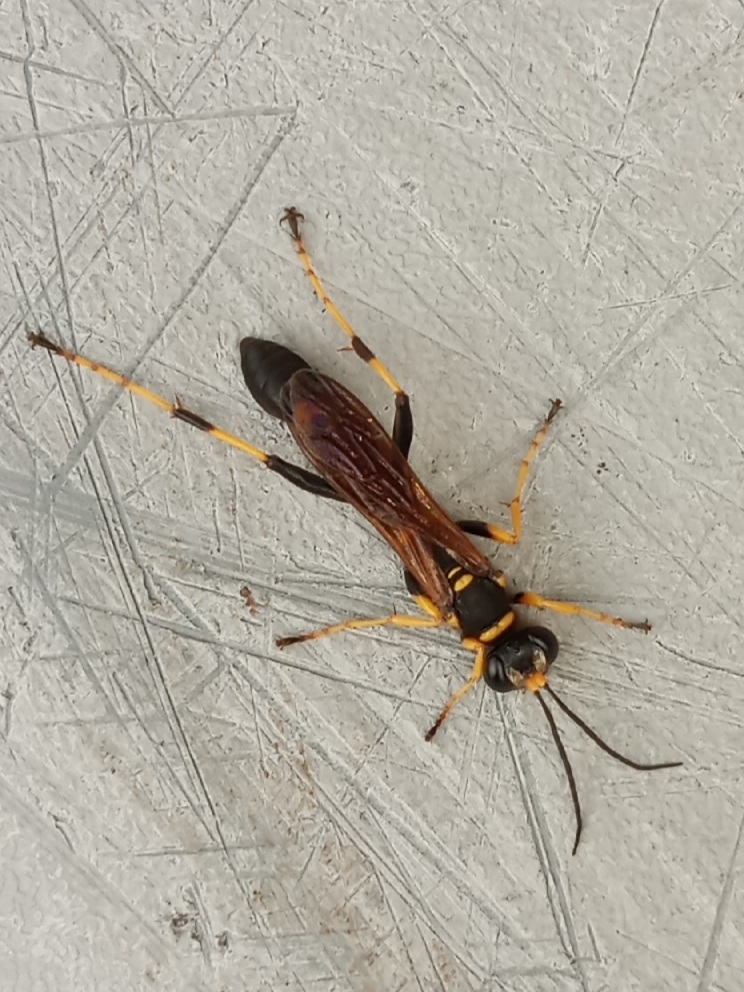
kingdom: Animalia
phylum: Arthropoda
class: Insecta
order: Hymenoptera
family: Sphecidae
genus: Sceliphron
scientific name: Sceliphron caementarium
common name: Mud dauber
